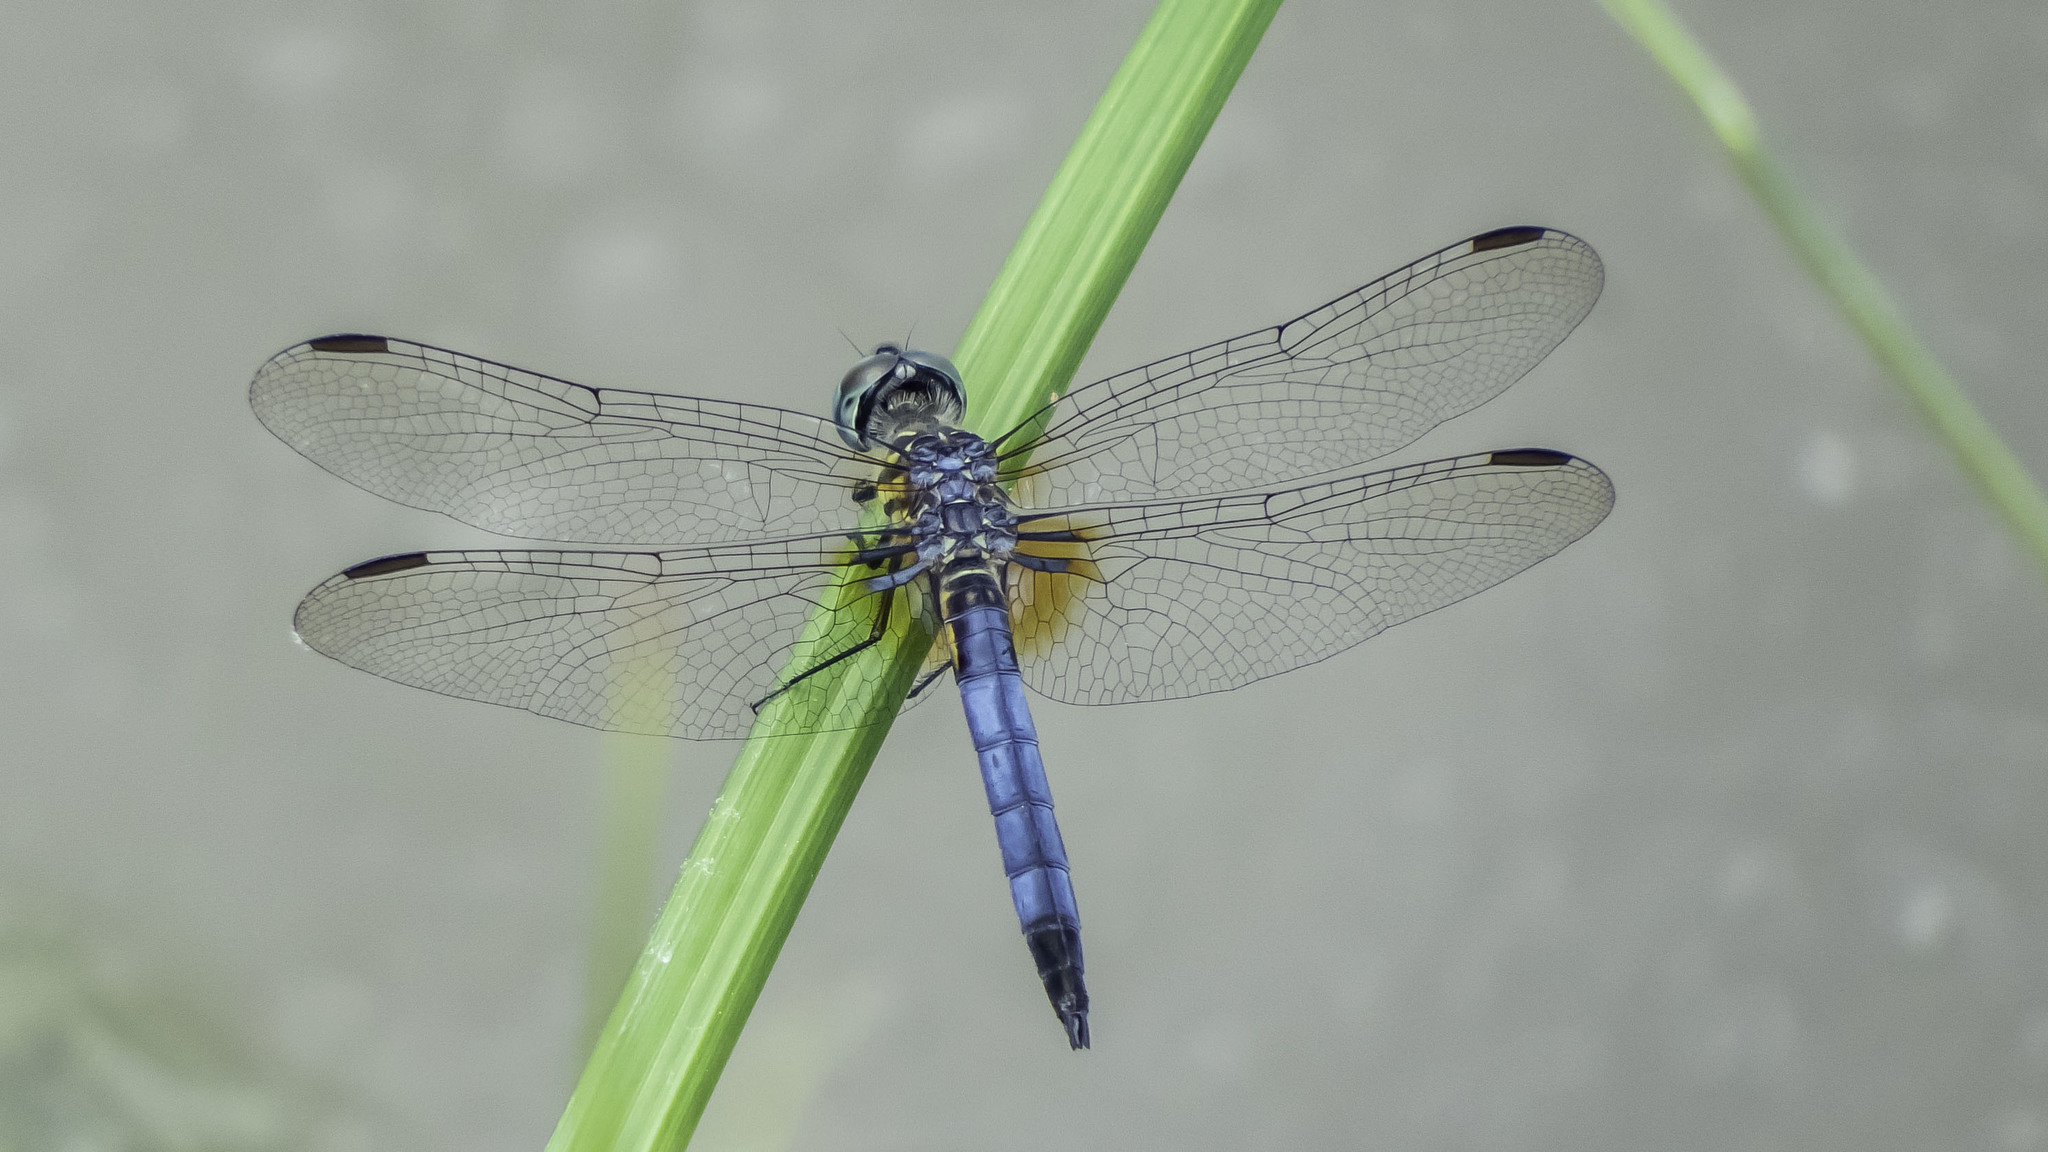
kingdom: Animalia
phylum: Arthropoda
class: Insecta
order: Odonata
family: Libellulidae
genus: Pachydiplax
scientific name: Pachydiplax longipennis
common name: Blue dasher
